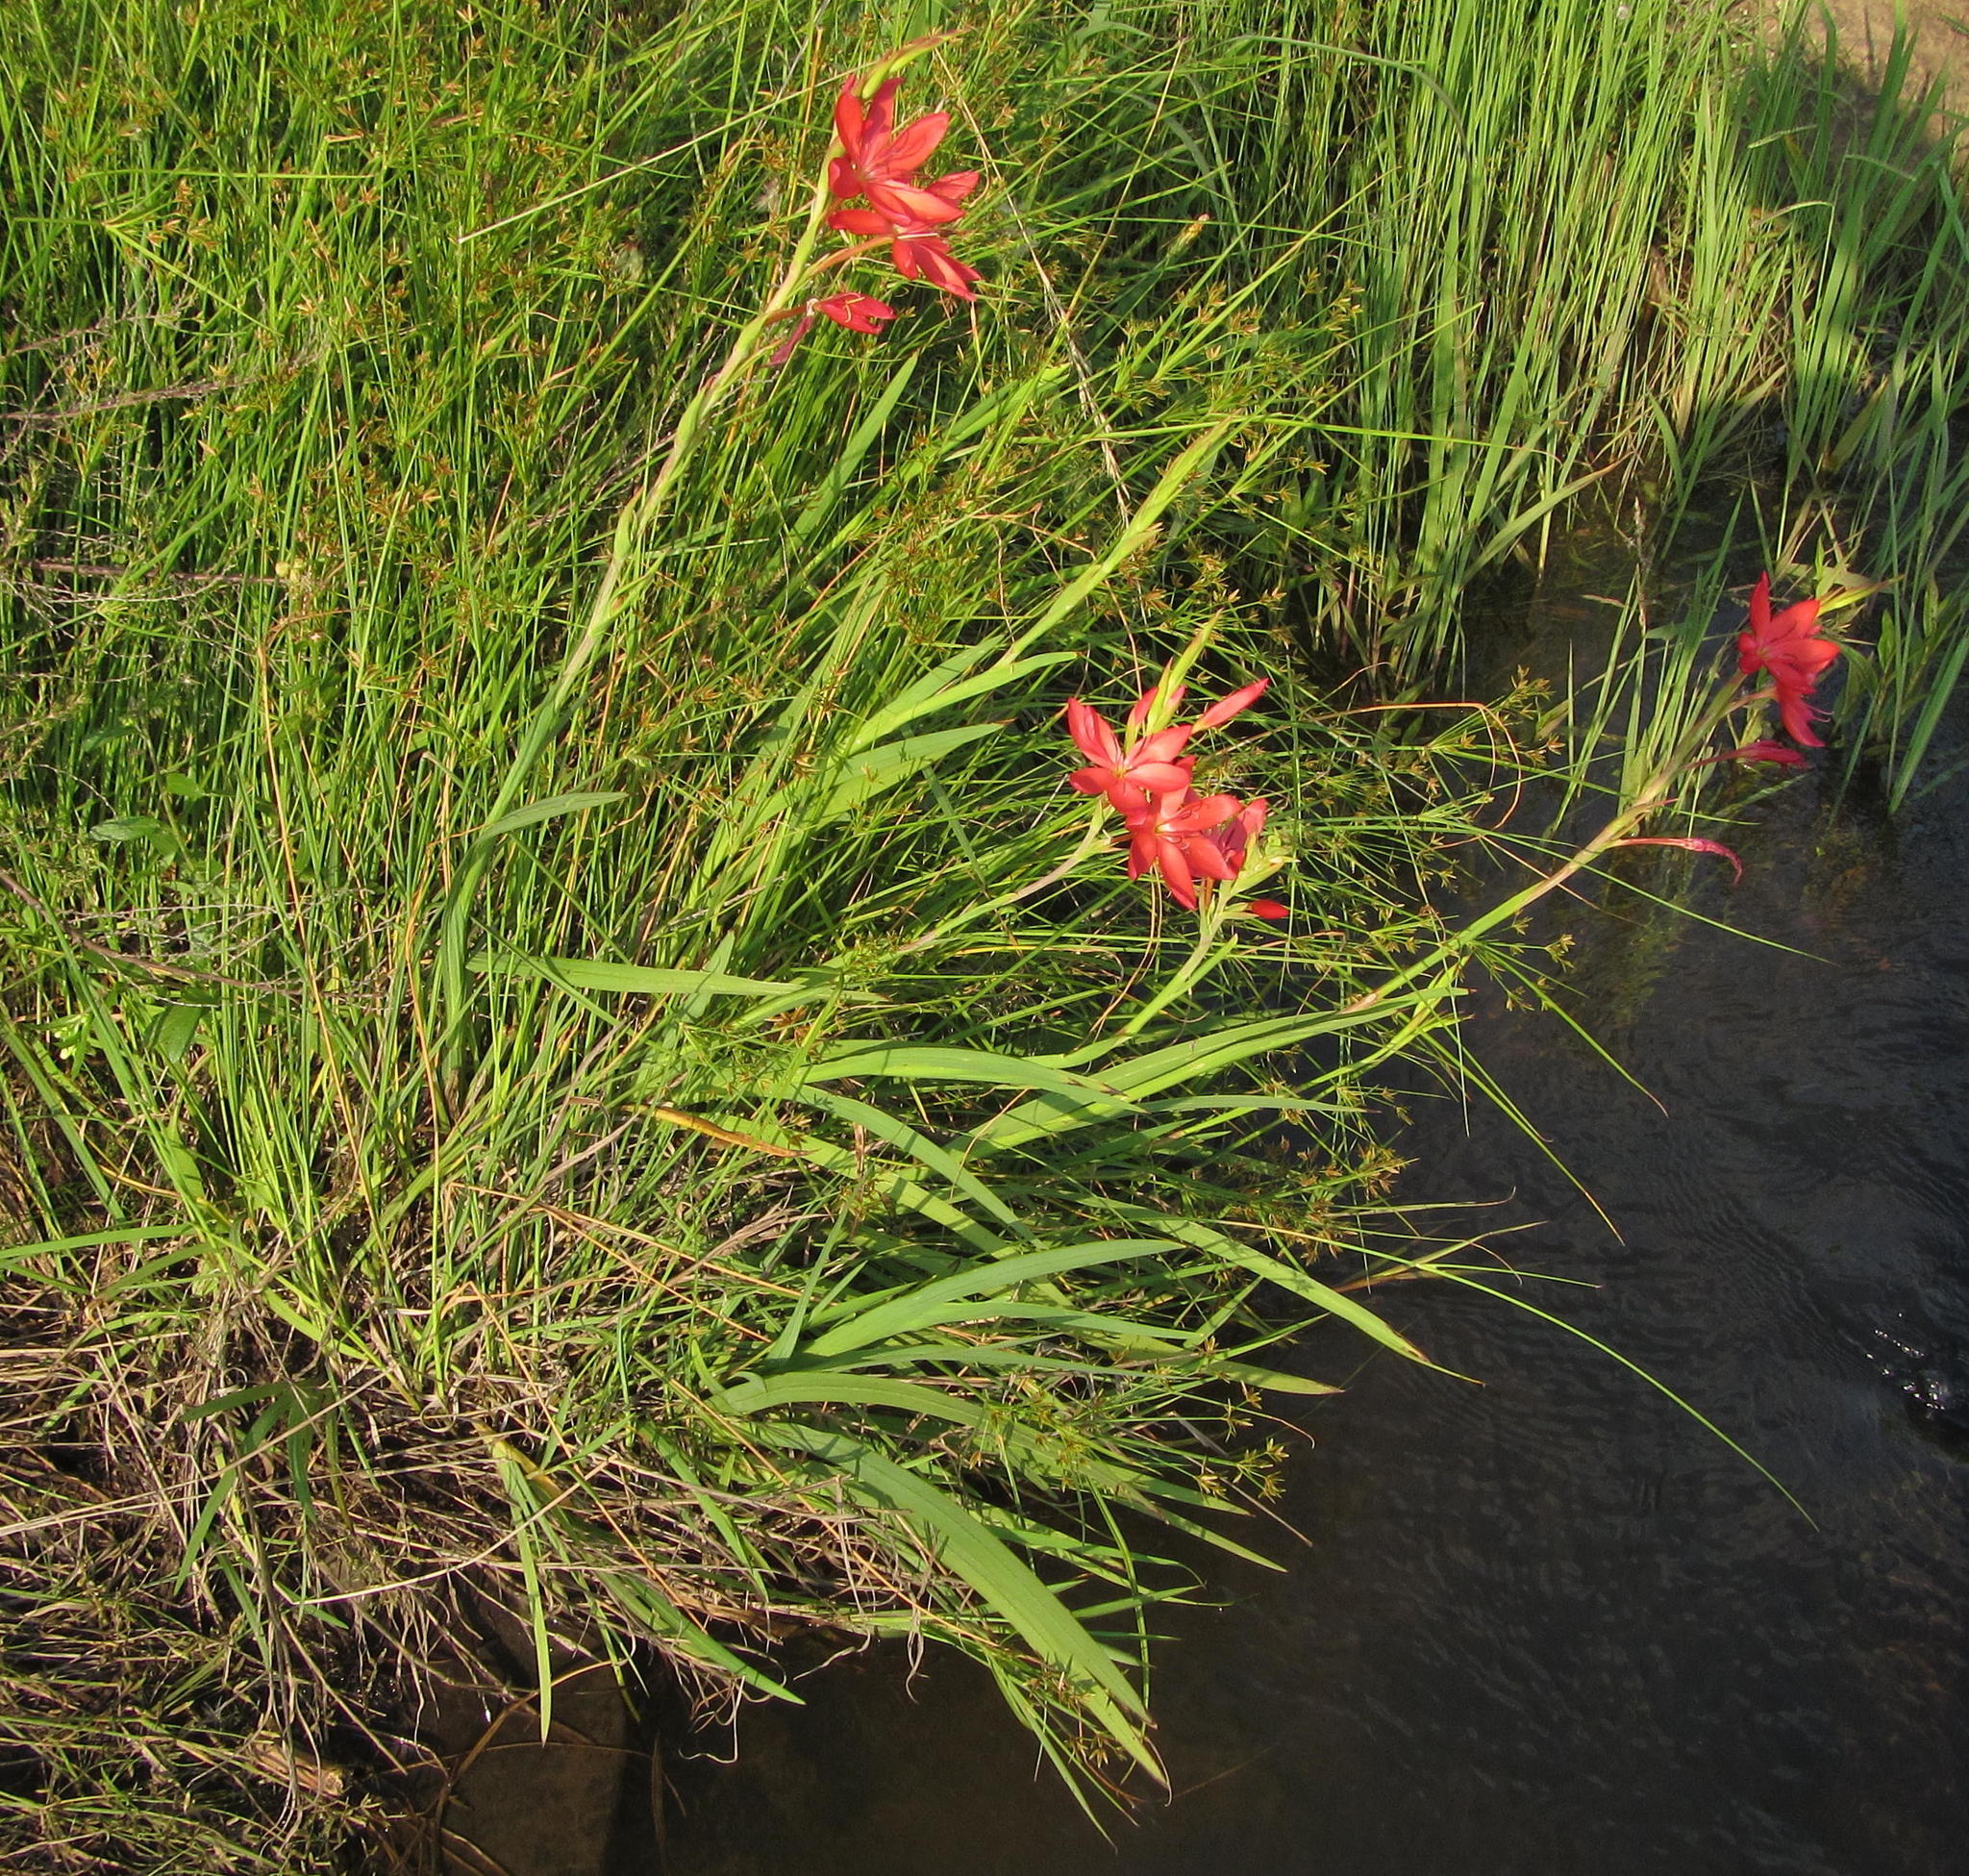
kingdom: Plantae
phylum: Tracheophyta
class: Liliopsida
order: Asparagales
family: Iridaceae
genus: Hesperantha
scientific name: Hesperantha coccinea
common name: River-lily
